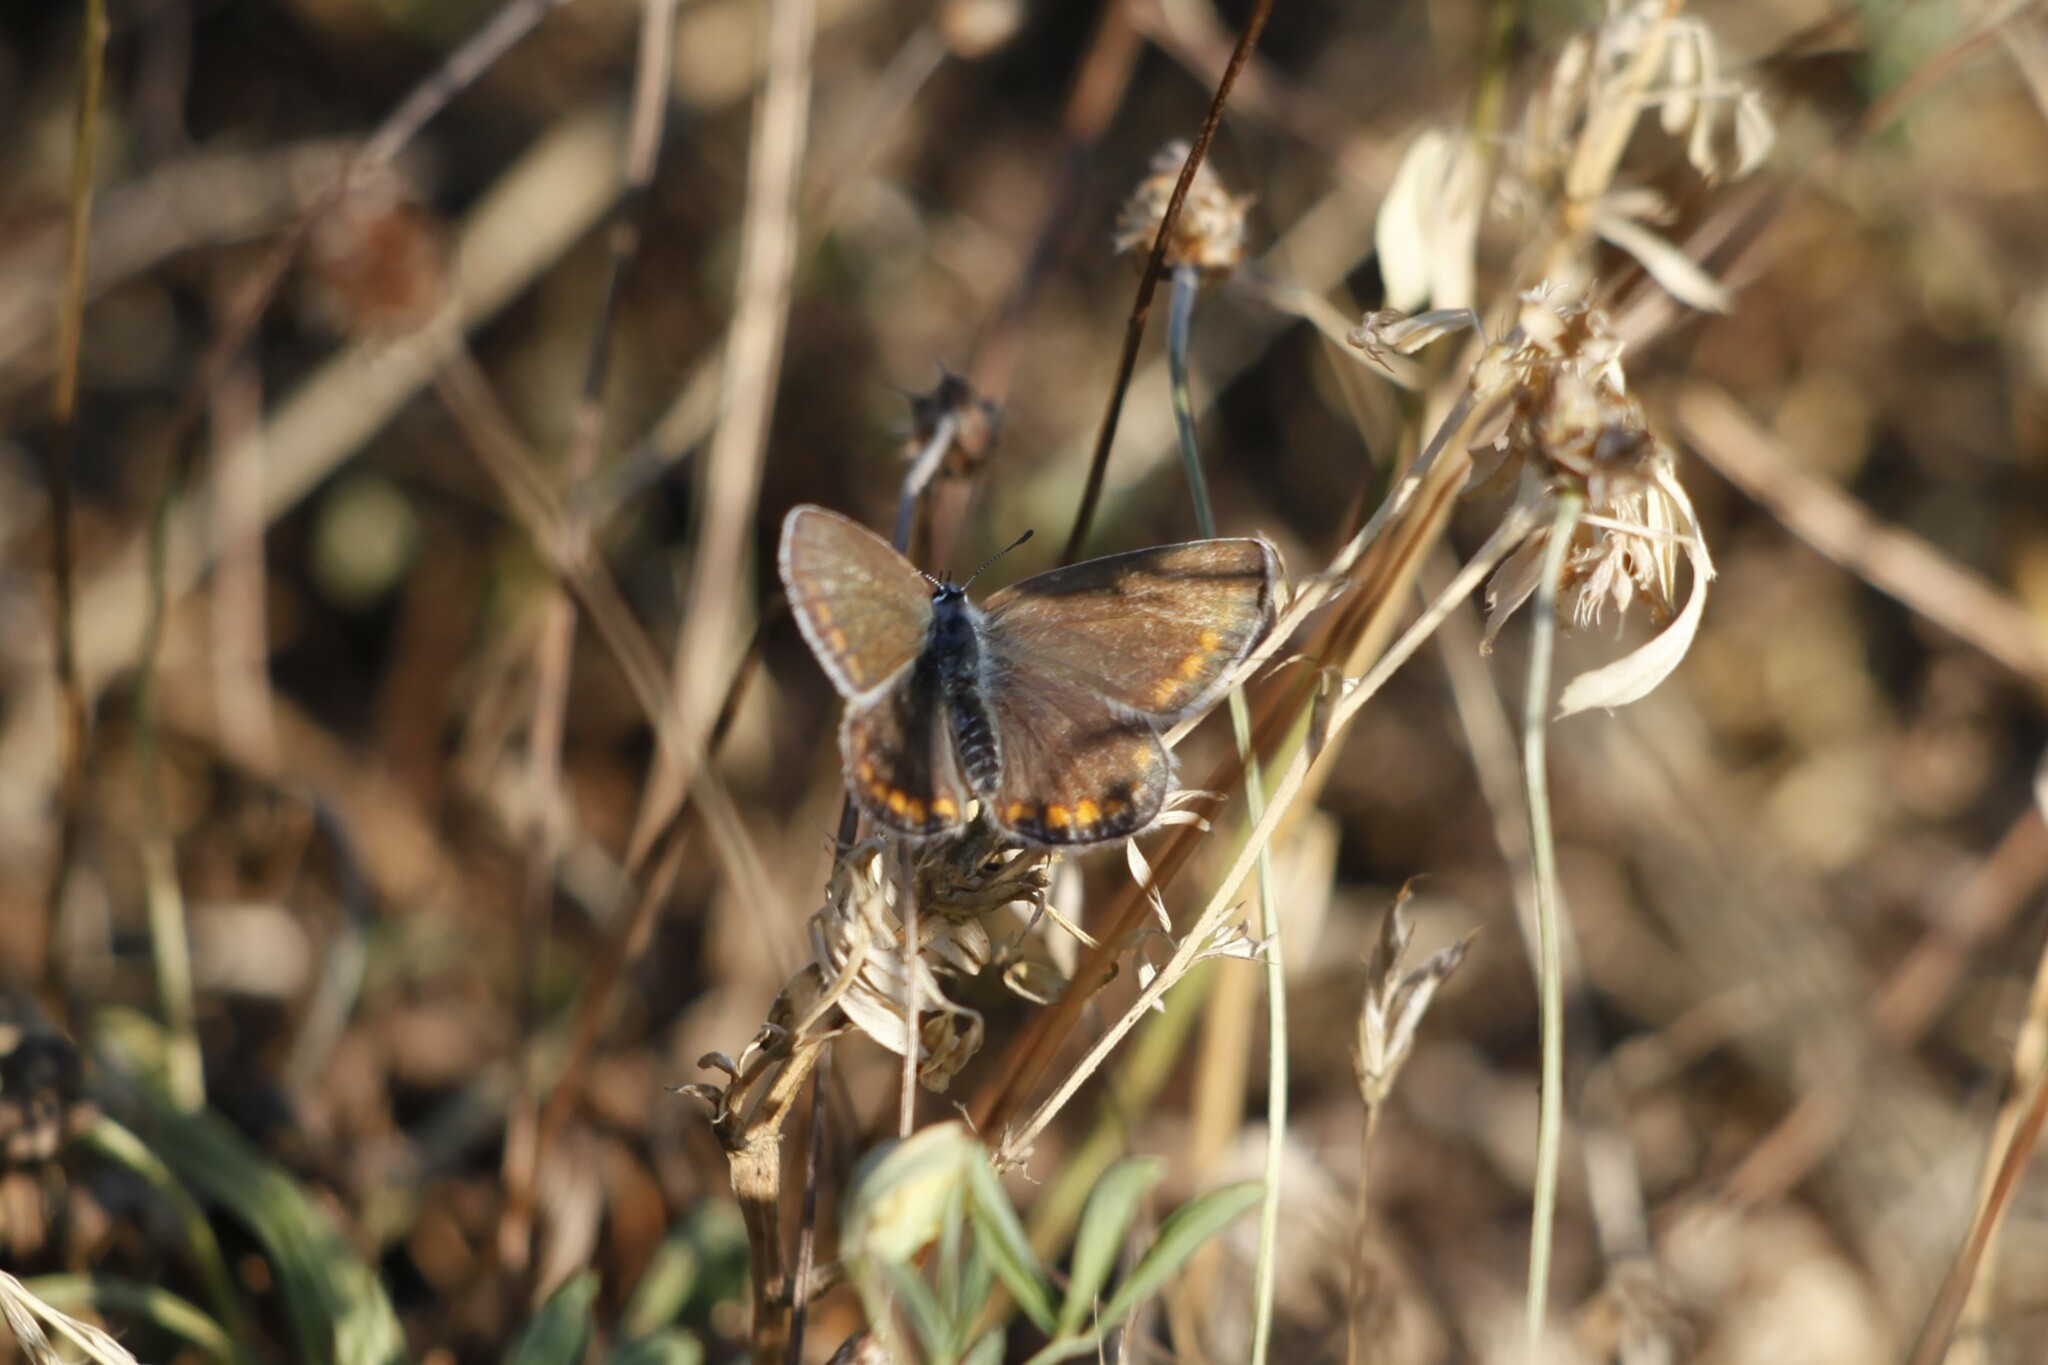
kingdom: Animalia
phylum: Arthropoda
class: Insecta
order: Lepidoptera
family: Lycaenidae
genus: Polyommatus
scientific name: Polyommatus icarus
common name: Common blue
